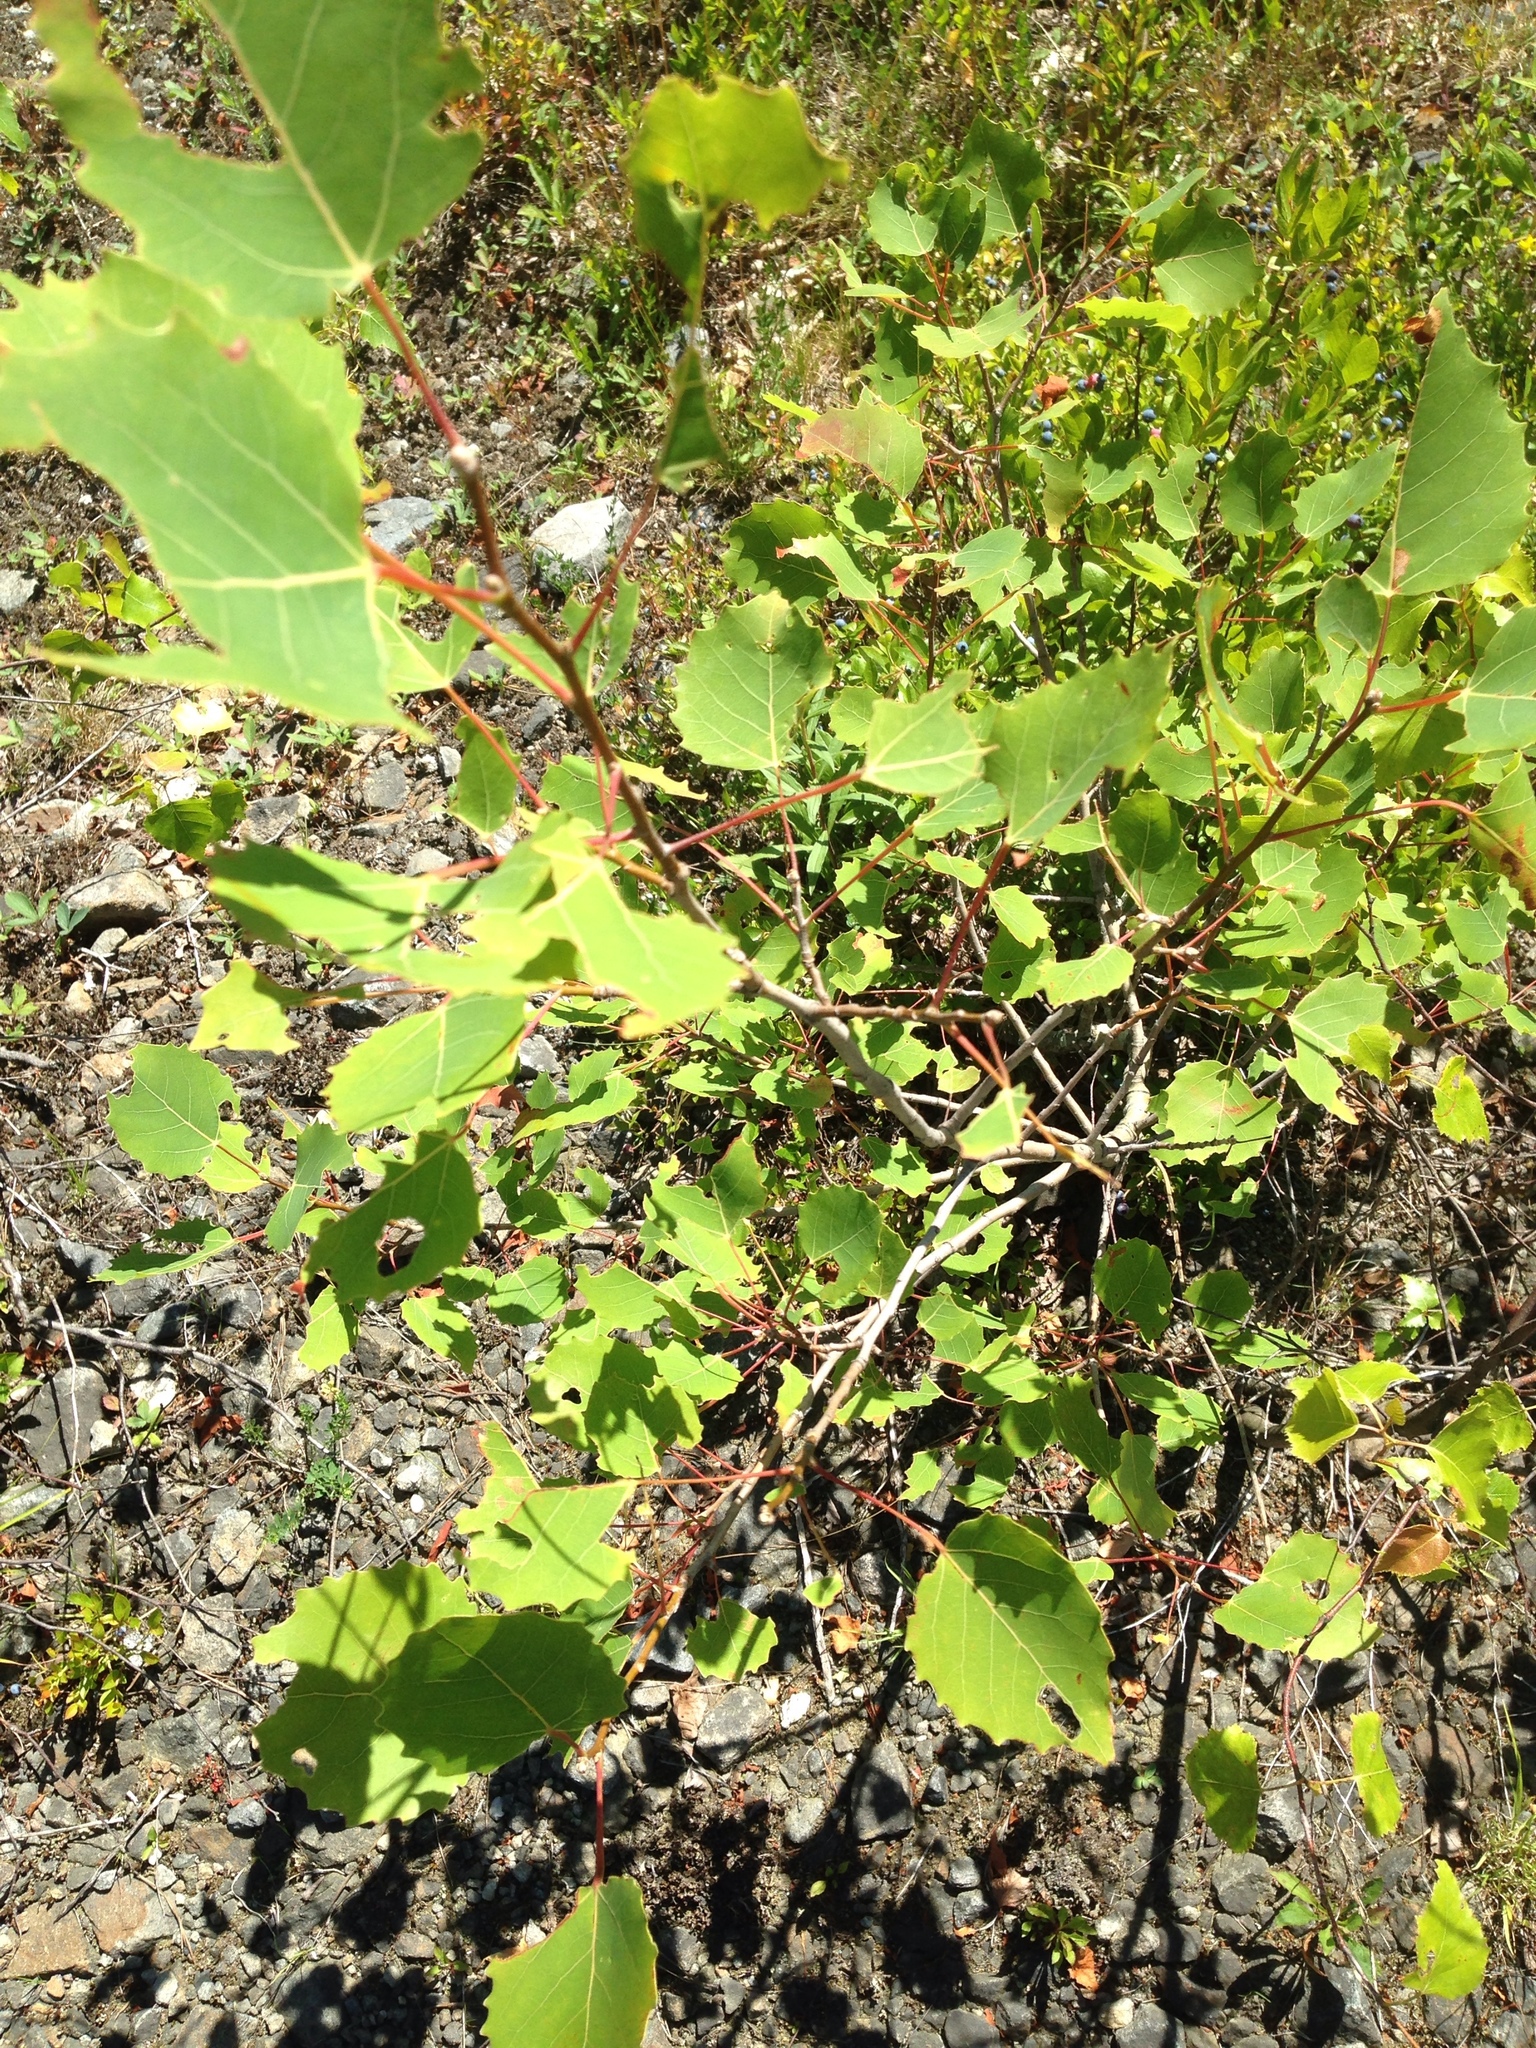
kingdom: Plantae
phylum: Tracheophyta
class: Magnoliopsida
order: Malpighiales
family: Salicaceae
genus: Populus
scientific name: Populus grandidentata
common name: Bigtooth aspen
